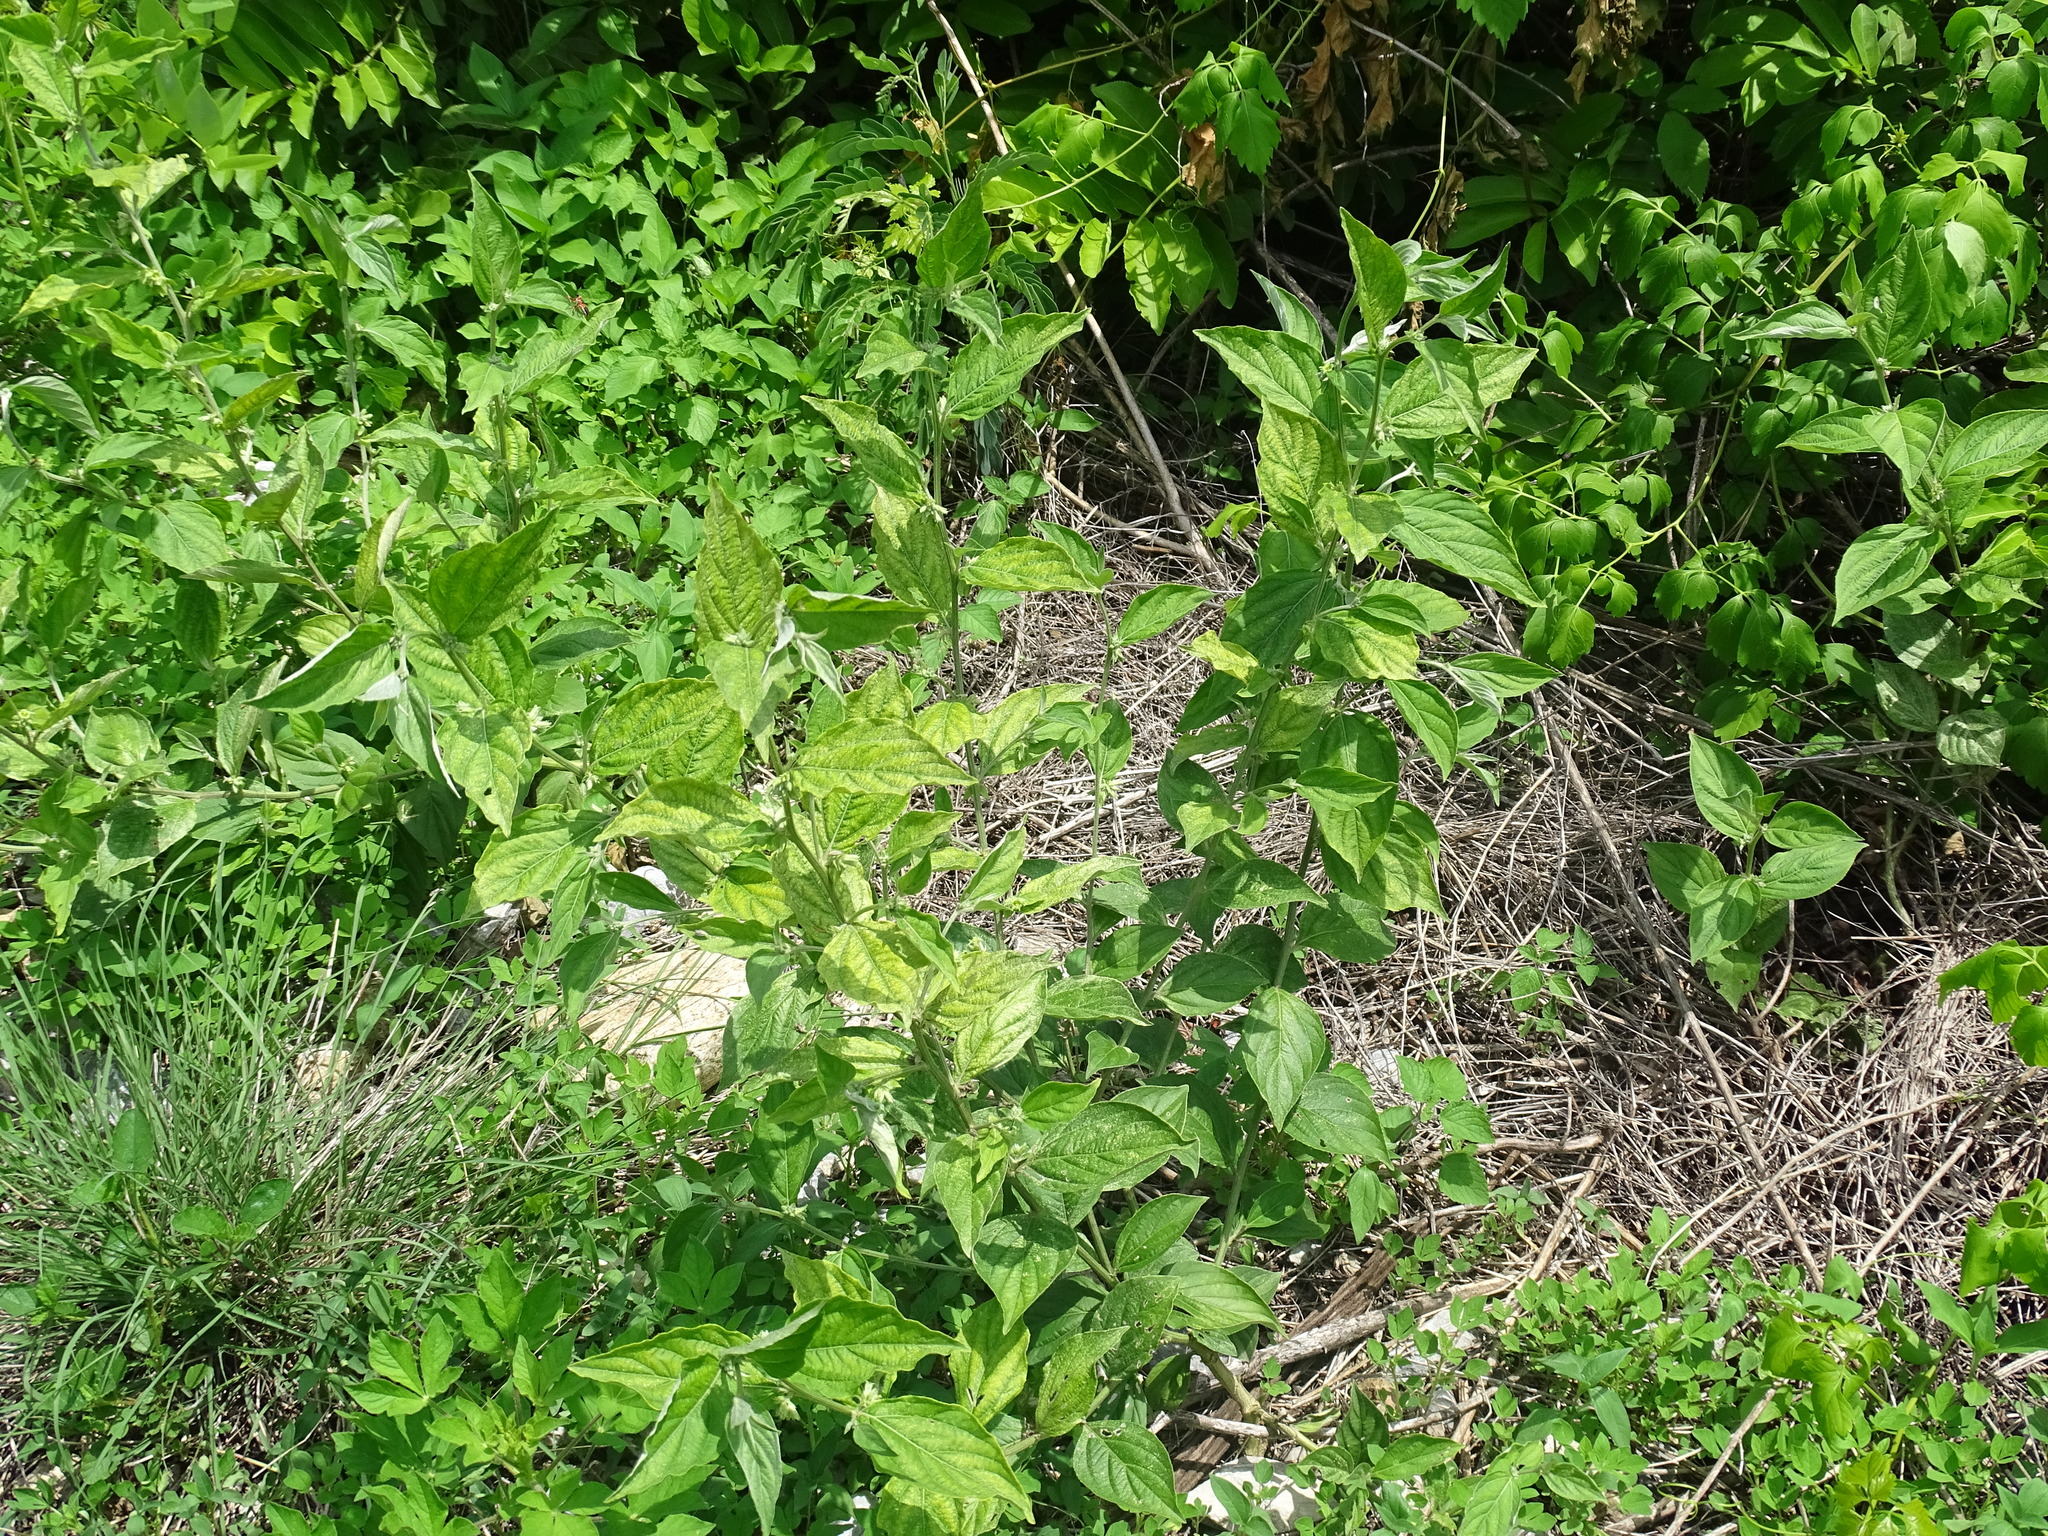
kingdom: Plantae
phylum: Tracheophyta
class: Magnoliopsida
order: Malpighiales
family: Euphorbiaceae
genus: Ditaxis
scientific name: Ditaxis guatemalensis
